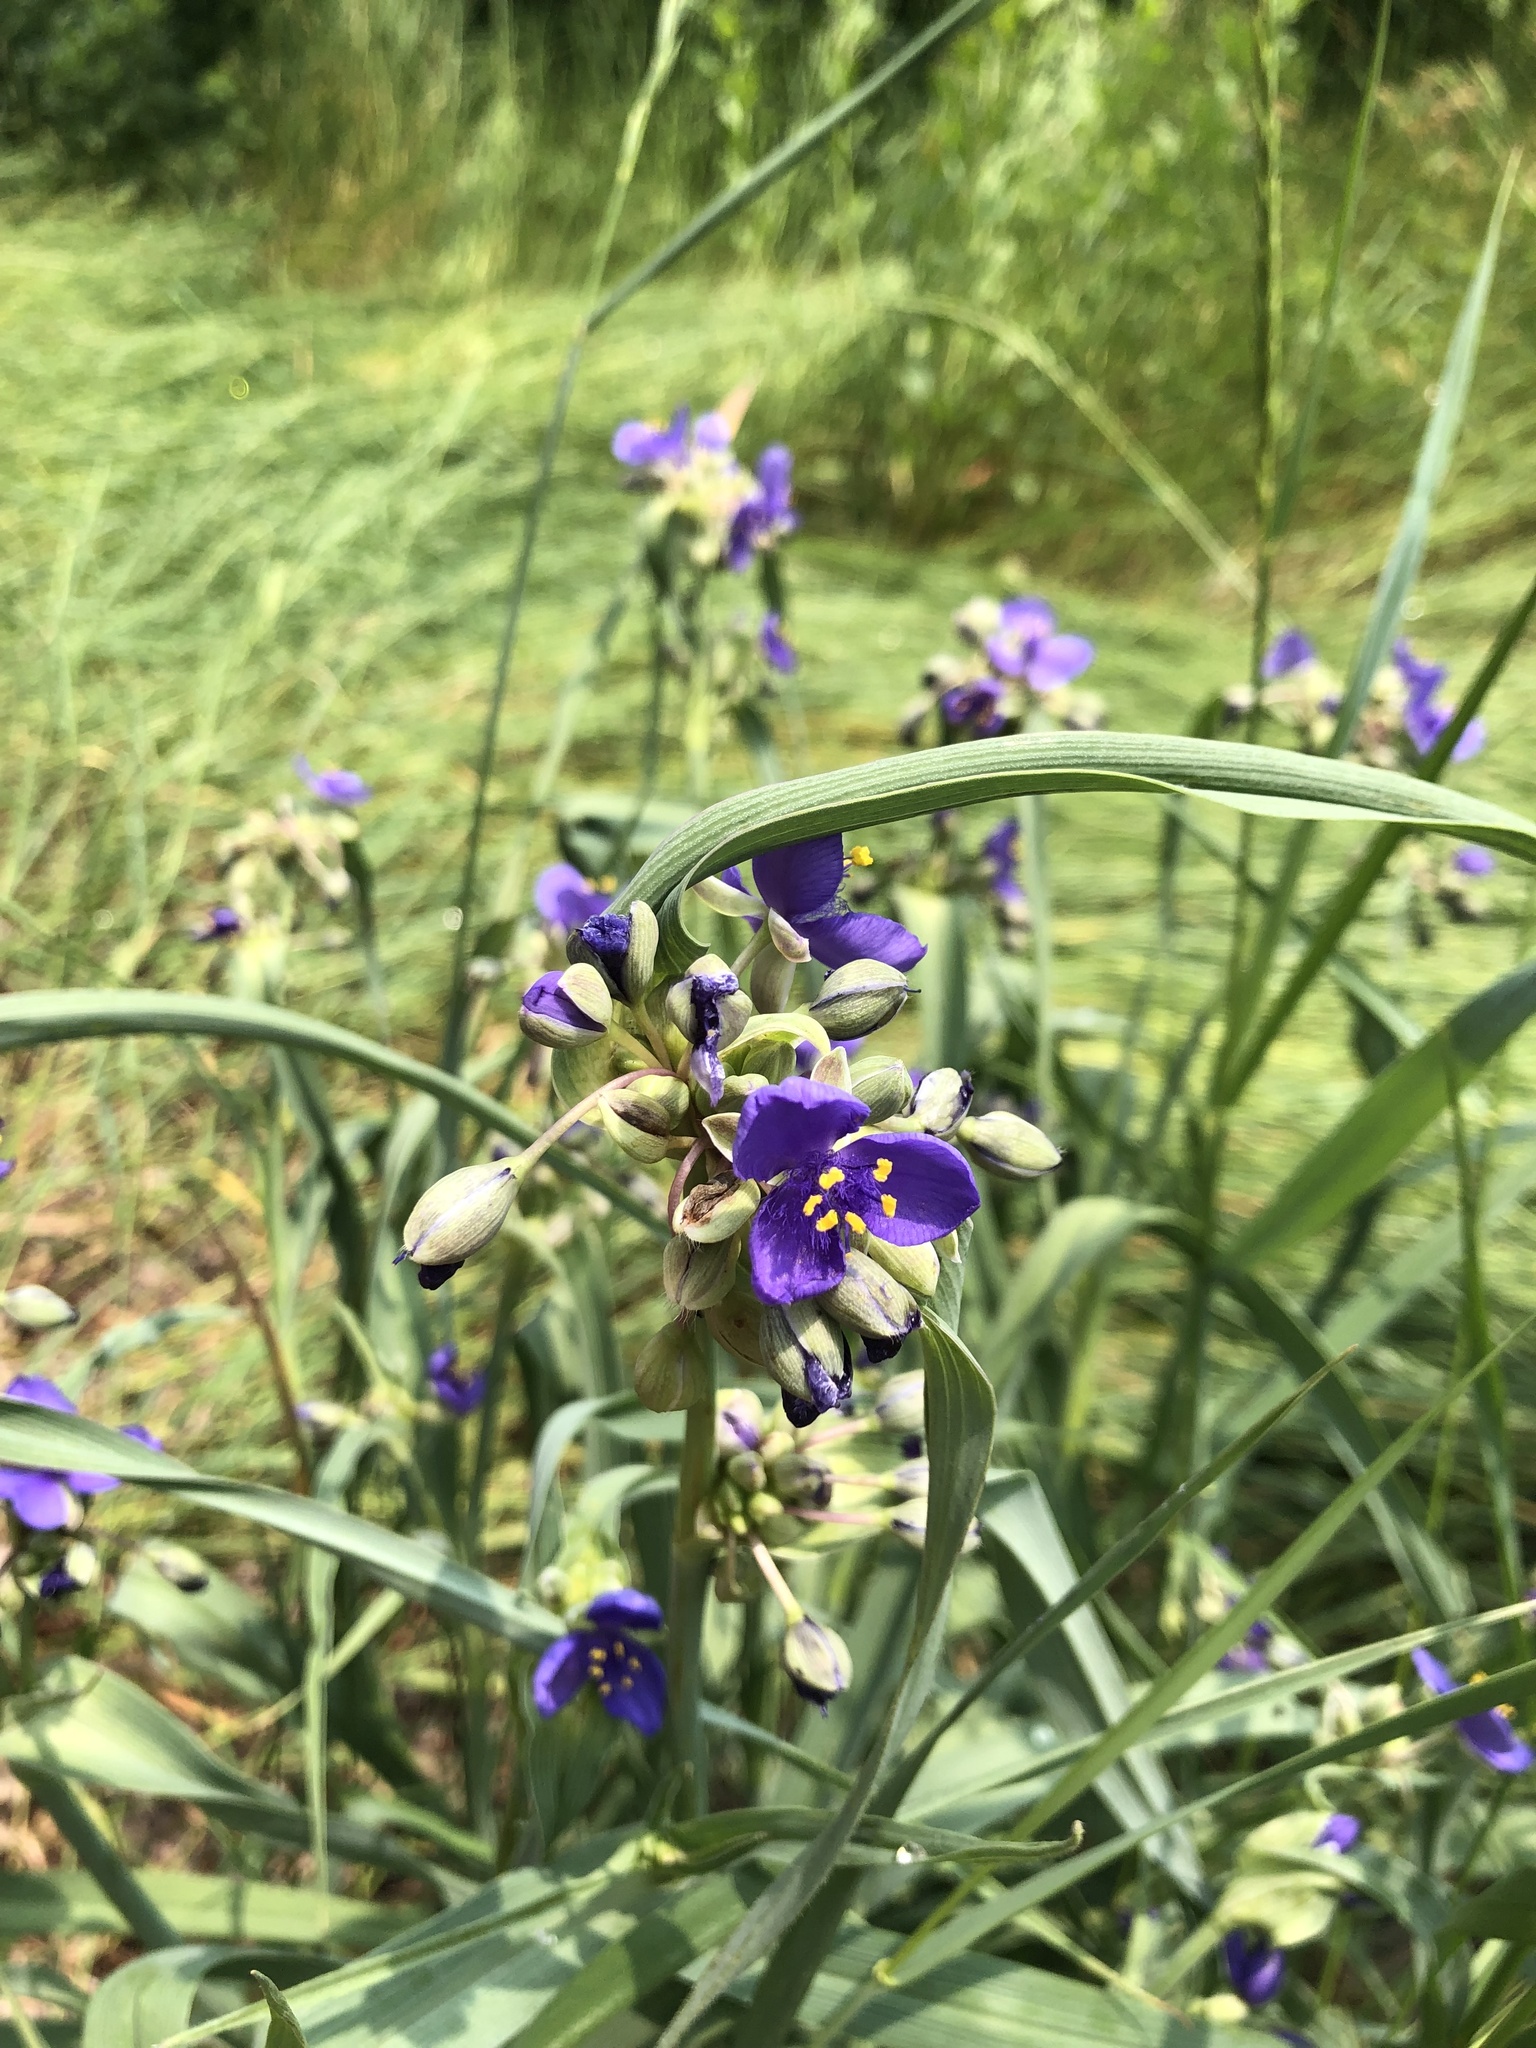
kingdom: Plantae
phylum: Tracheophyta
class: Liliopsida
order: Commelinales
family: Commelinaceae
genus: Tradescantia
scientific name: Tradescantia ohiensis
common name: Ohio spiderwort
